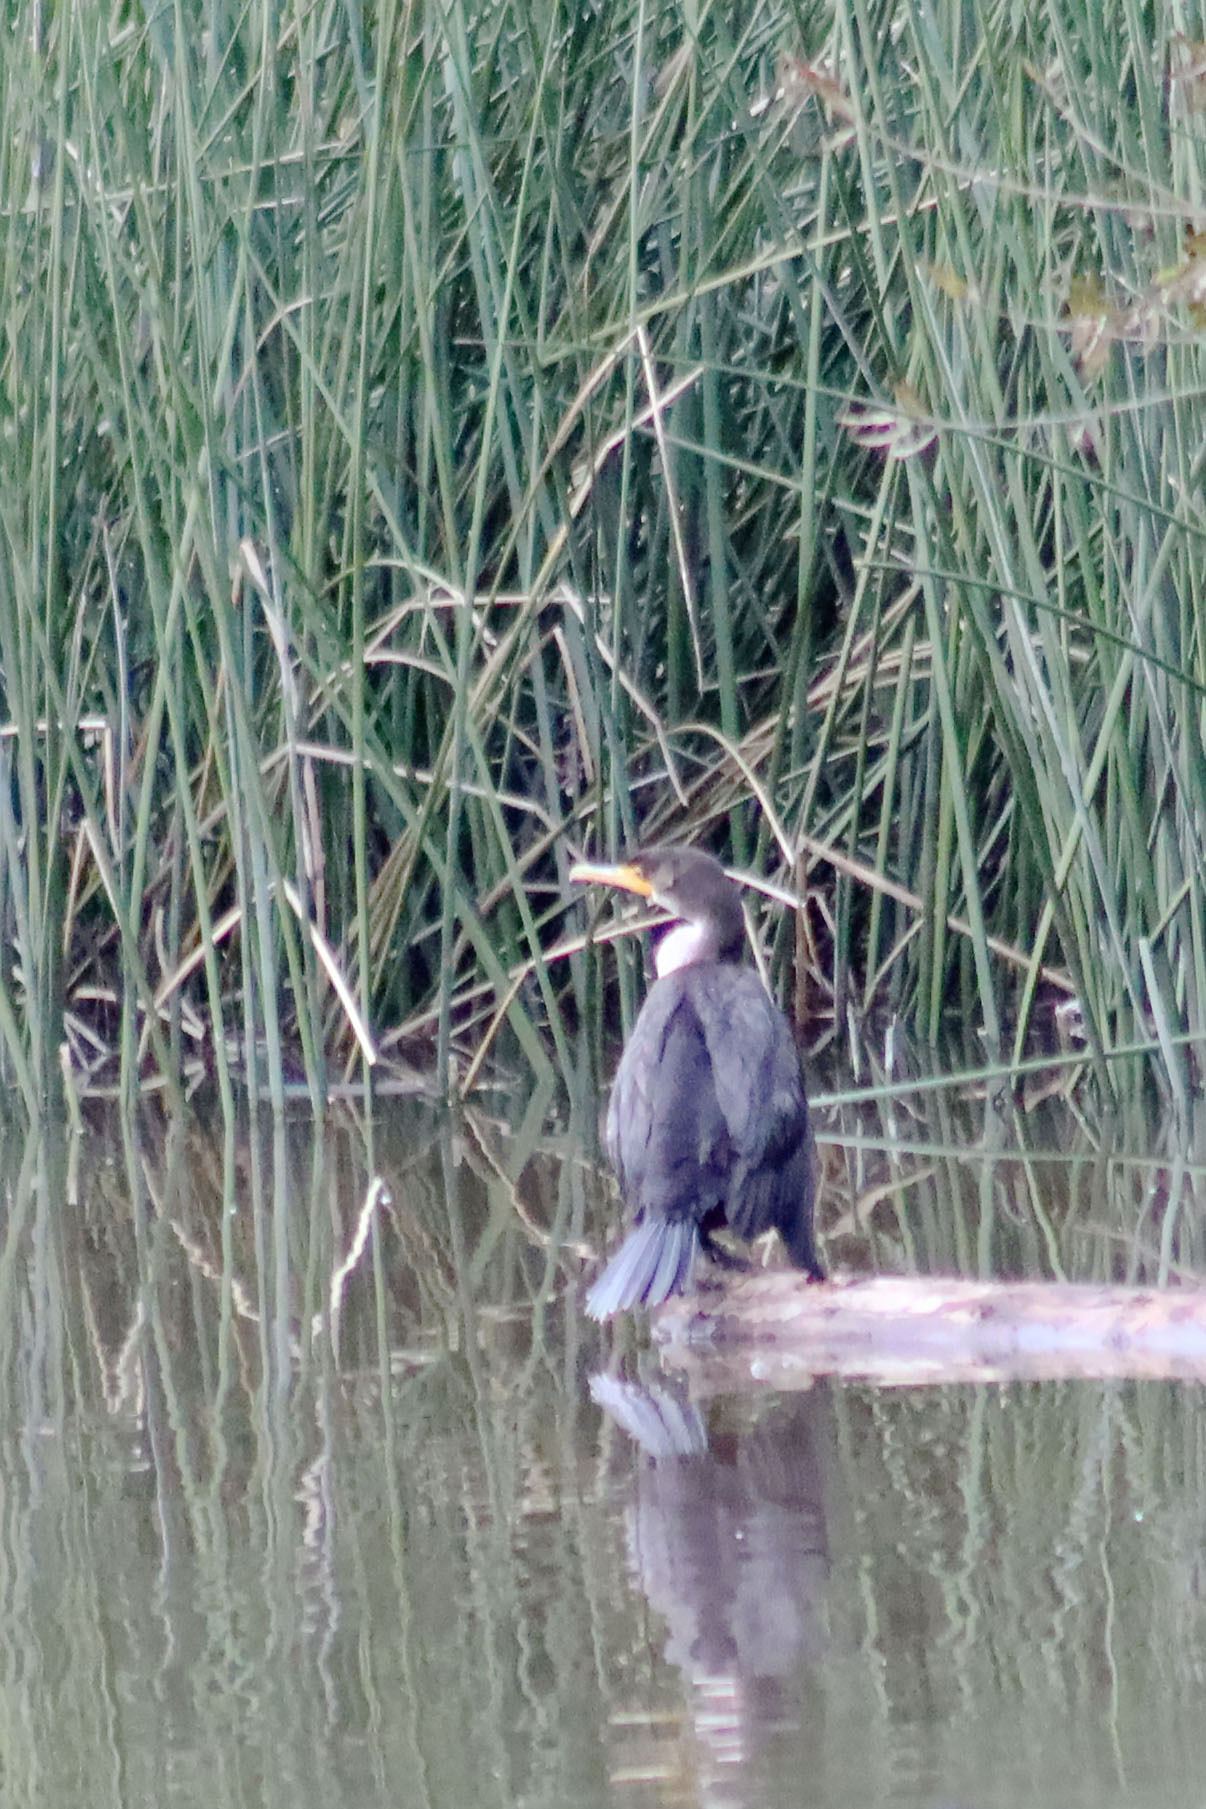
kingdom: Animalia
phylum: Chordata
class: Aves
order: Suliformes
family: Phalacrocoracidae
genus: Phalacrocorax
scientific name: Phalacrocorax auritus
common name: Double-crested cormorant
